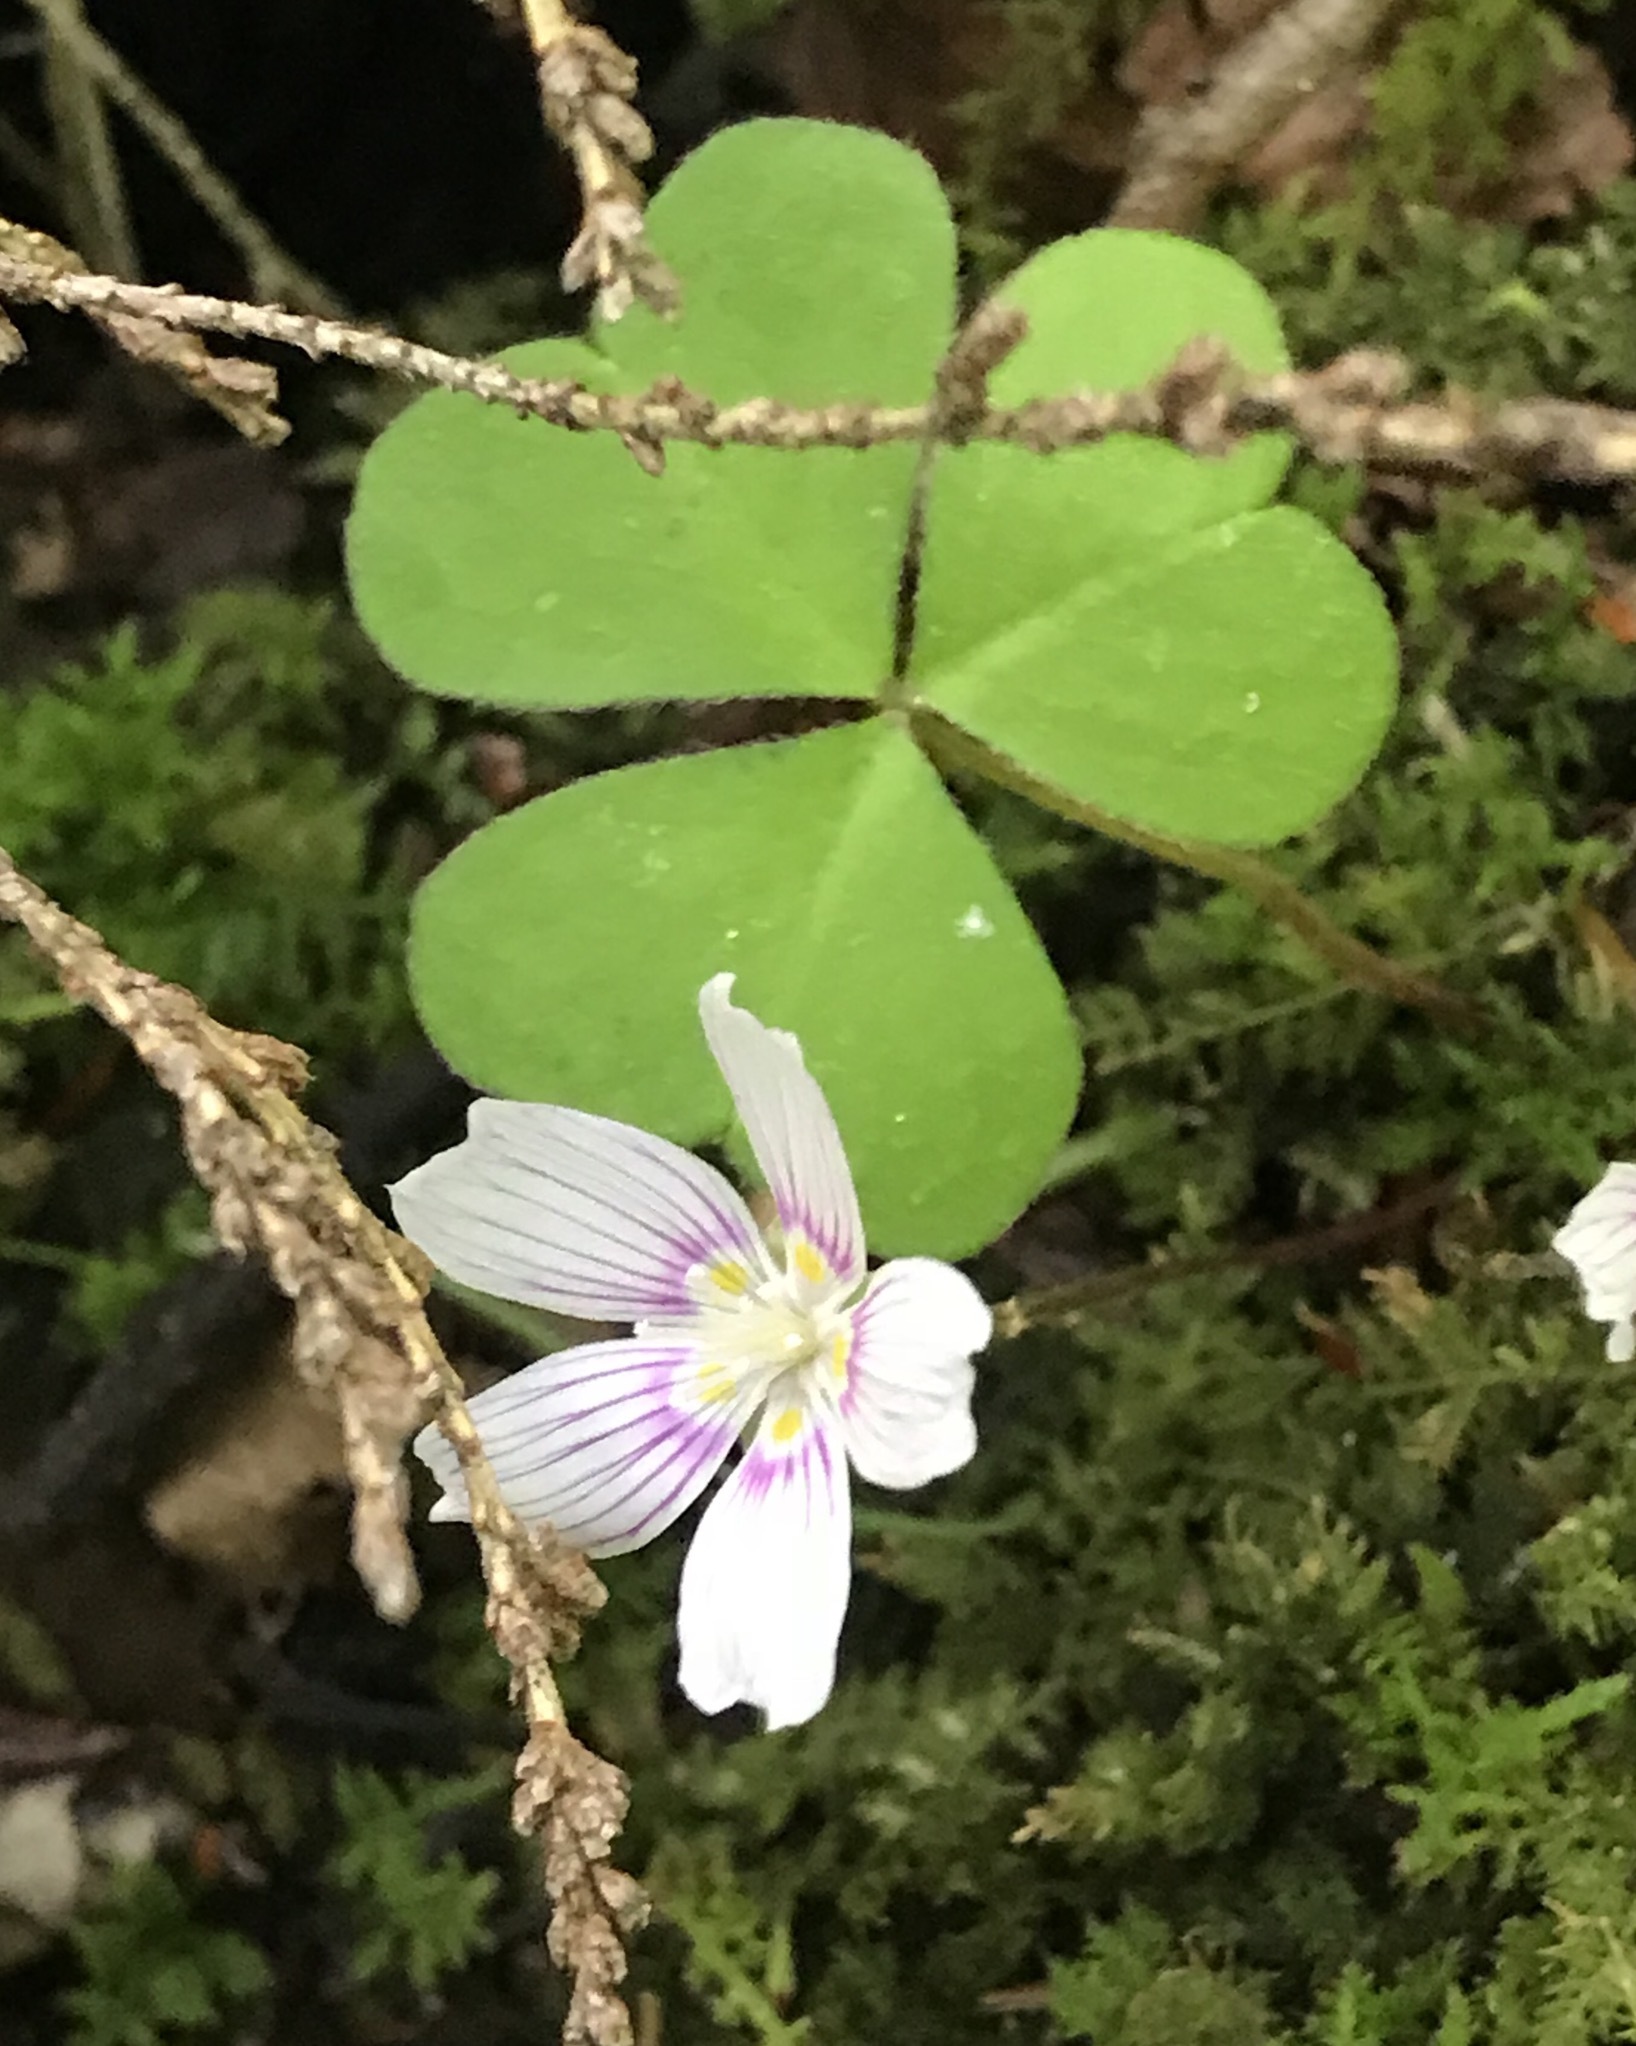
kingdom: Plantae
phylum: Tracheophyta
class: Magnoliopsida
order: Oxalidales
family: Oxalidaceae
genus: Oxalis
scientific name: Oxalis montana
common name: American wood-sorrel
